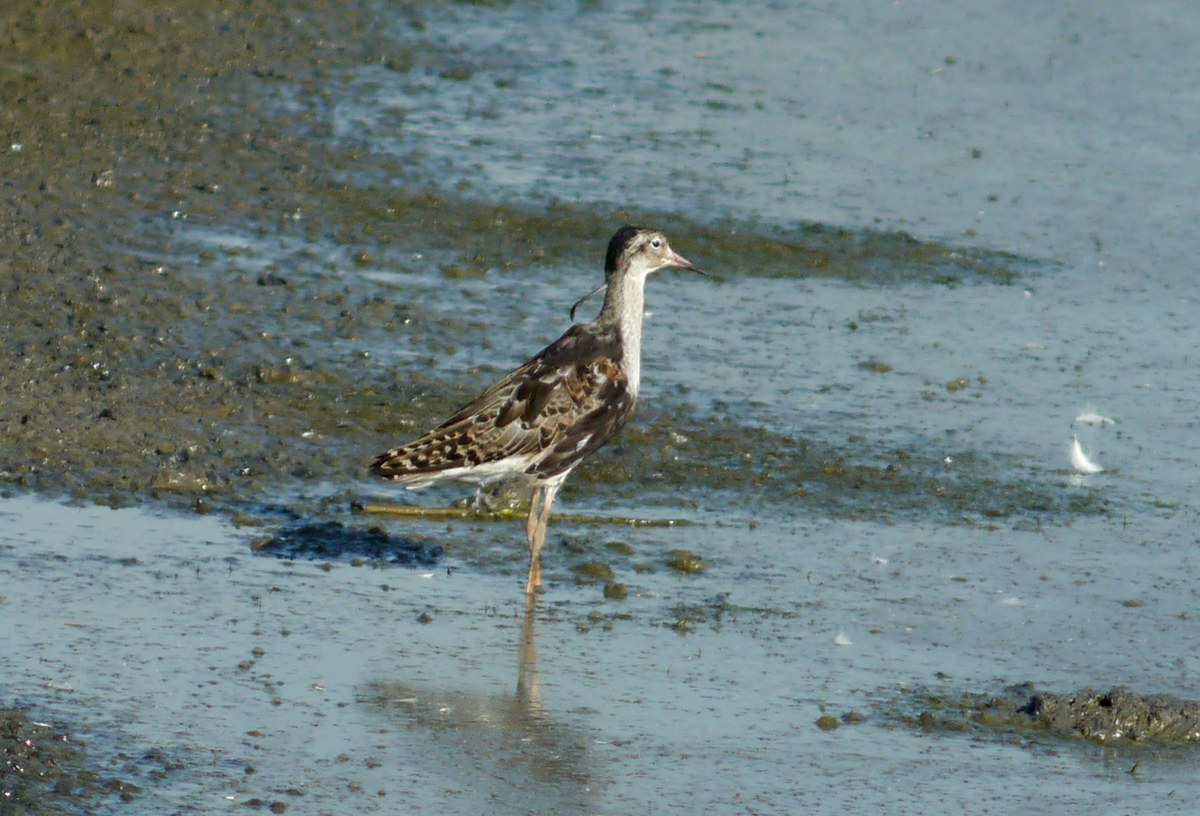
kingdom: Animalia
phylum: Chordata
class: Aves
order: Charadriiformes
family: Scolopacidae
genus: Calidris
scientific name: Calidris pugnax
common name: Ruff
